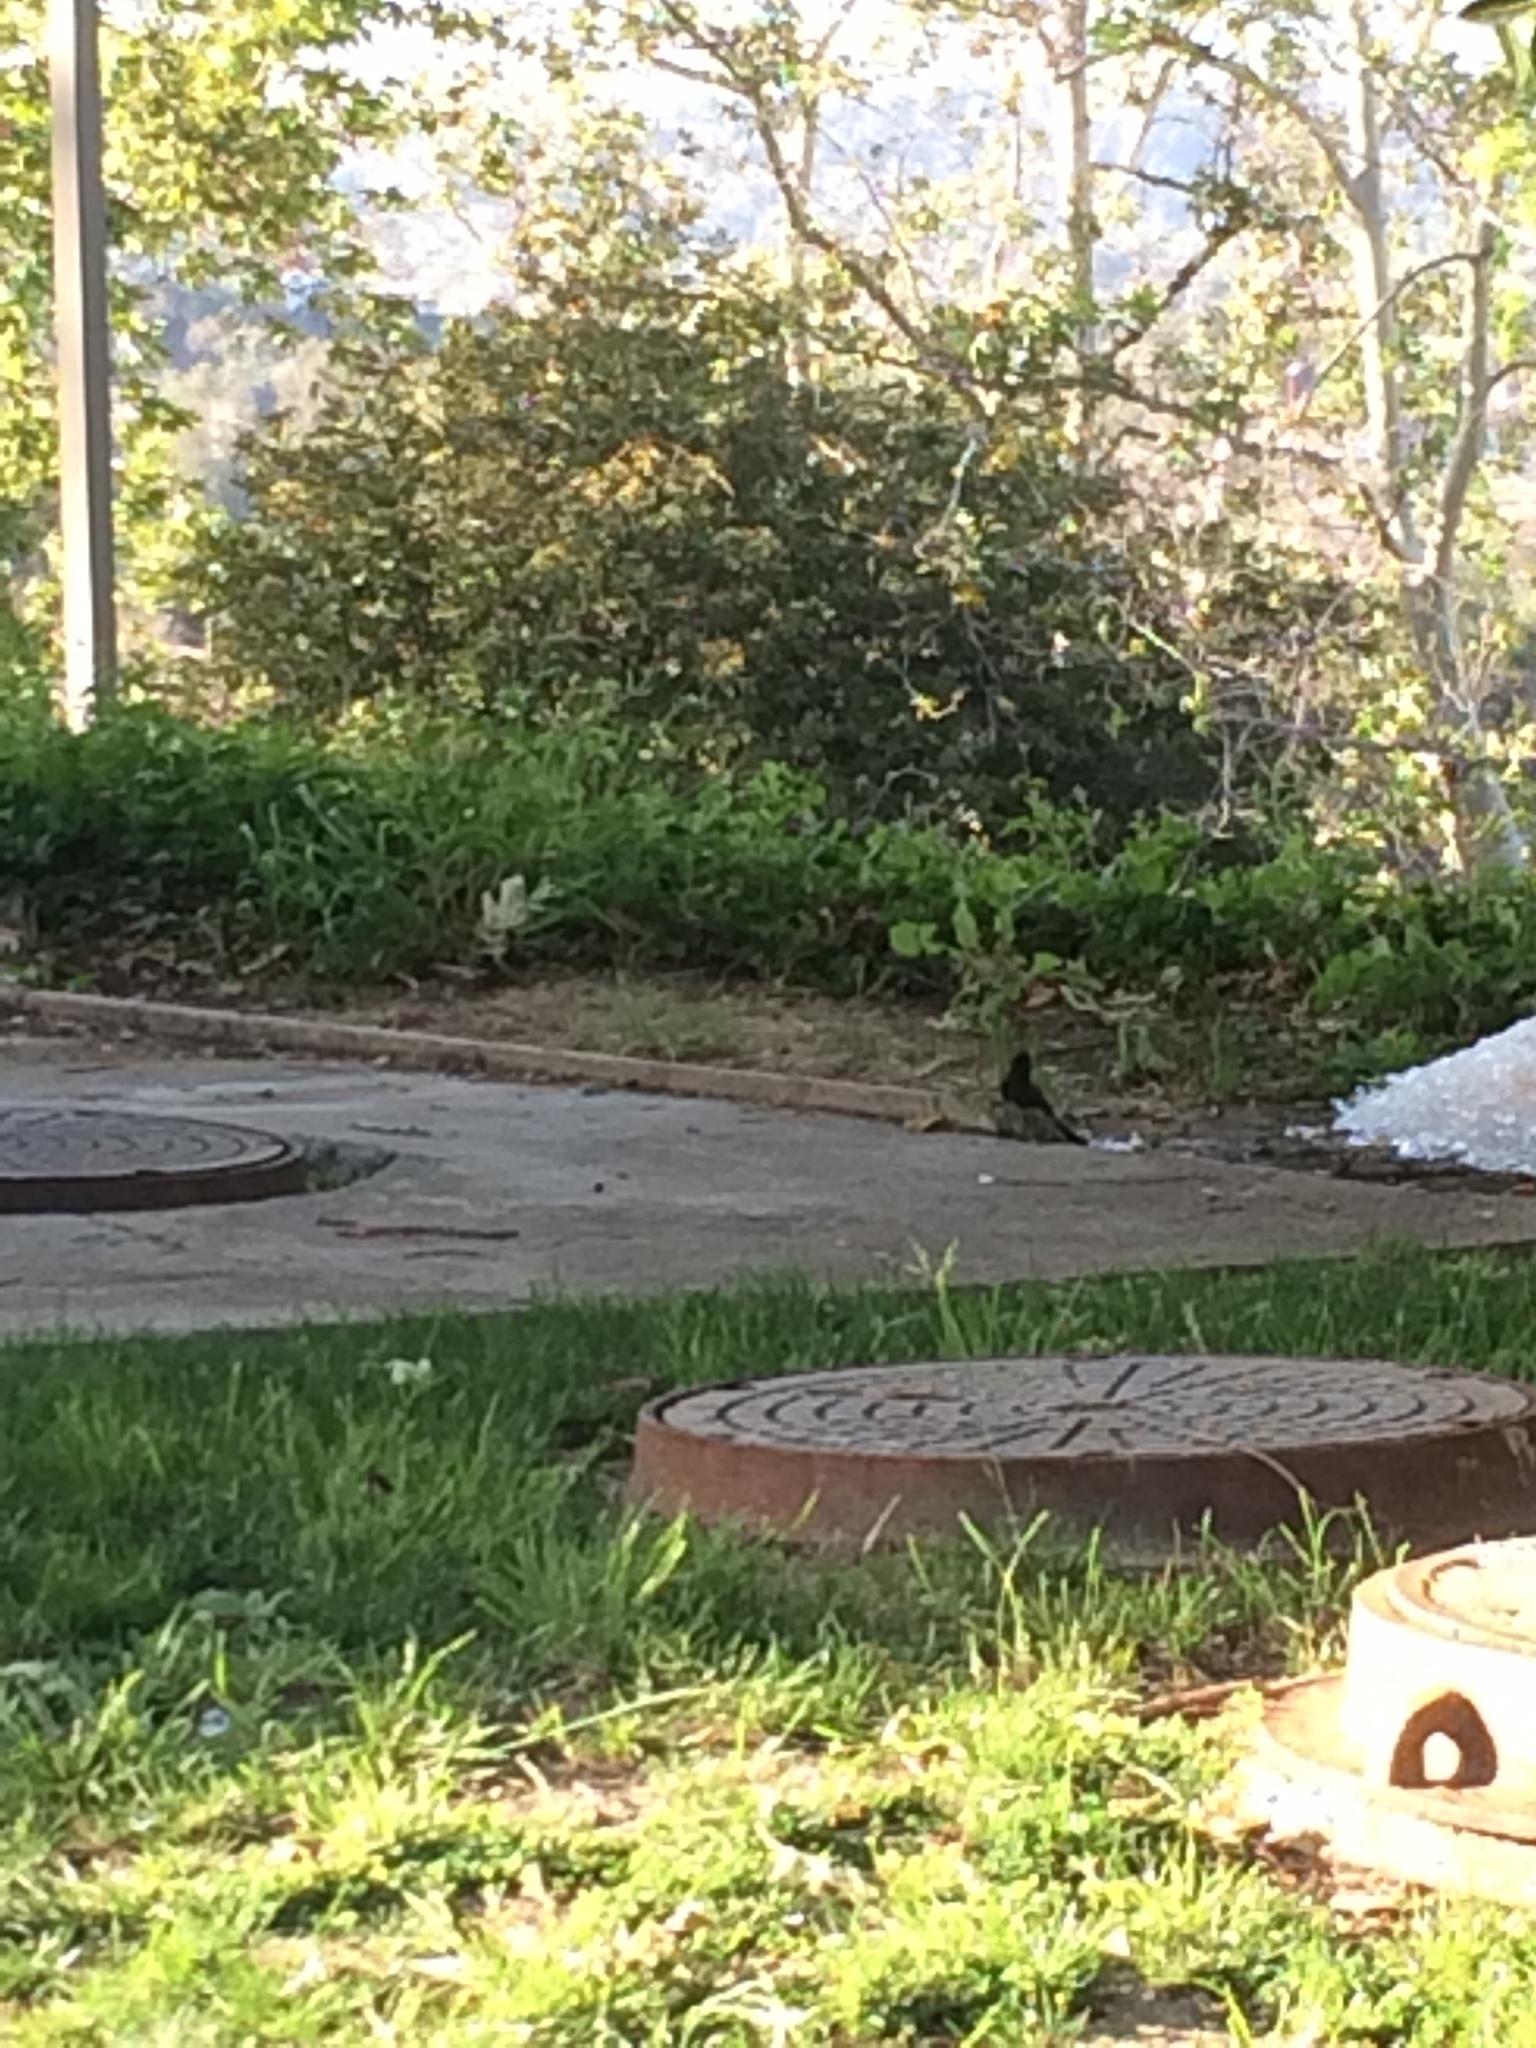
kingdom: Animalia
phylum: Chordata
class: Aves
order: Passeriformes
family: Tyrannidae
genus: Sayornis
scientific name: Sayornis nigricans
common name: Black phoebe
